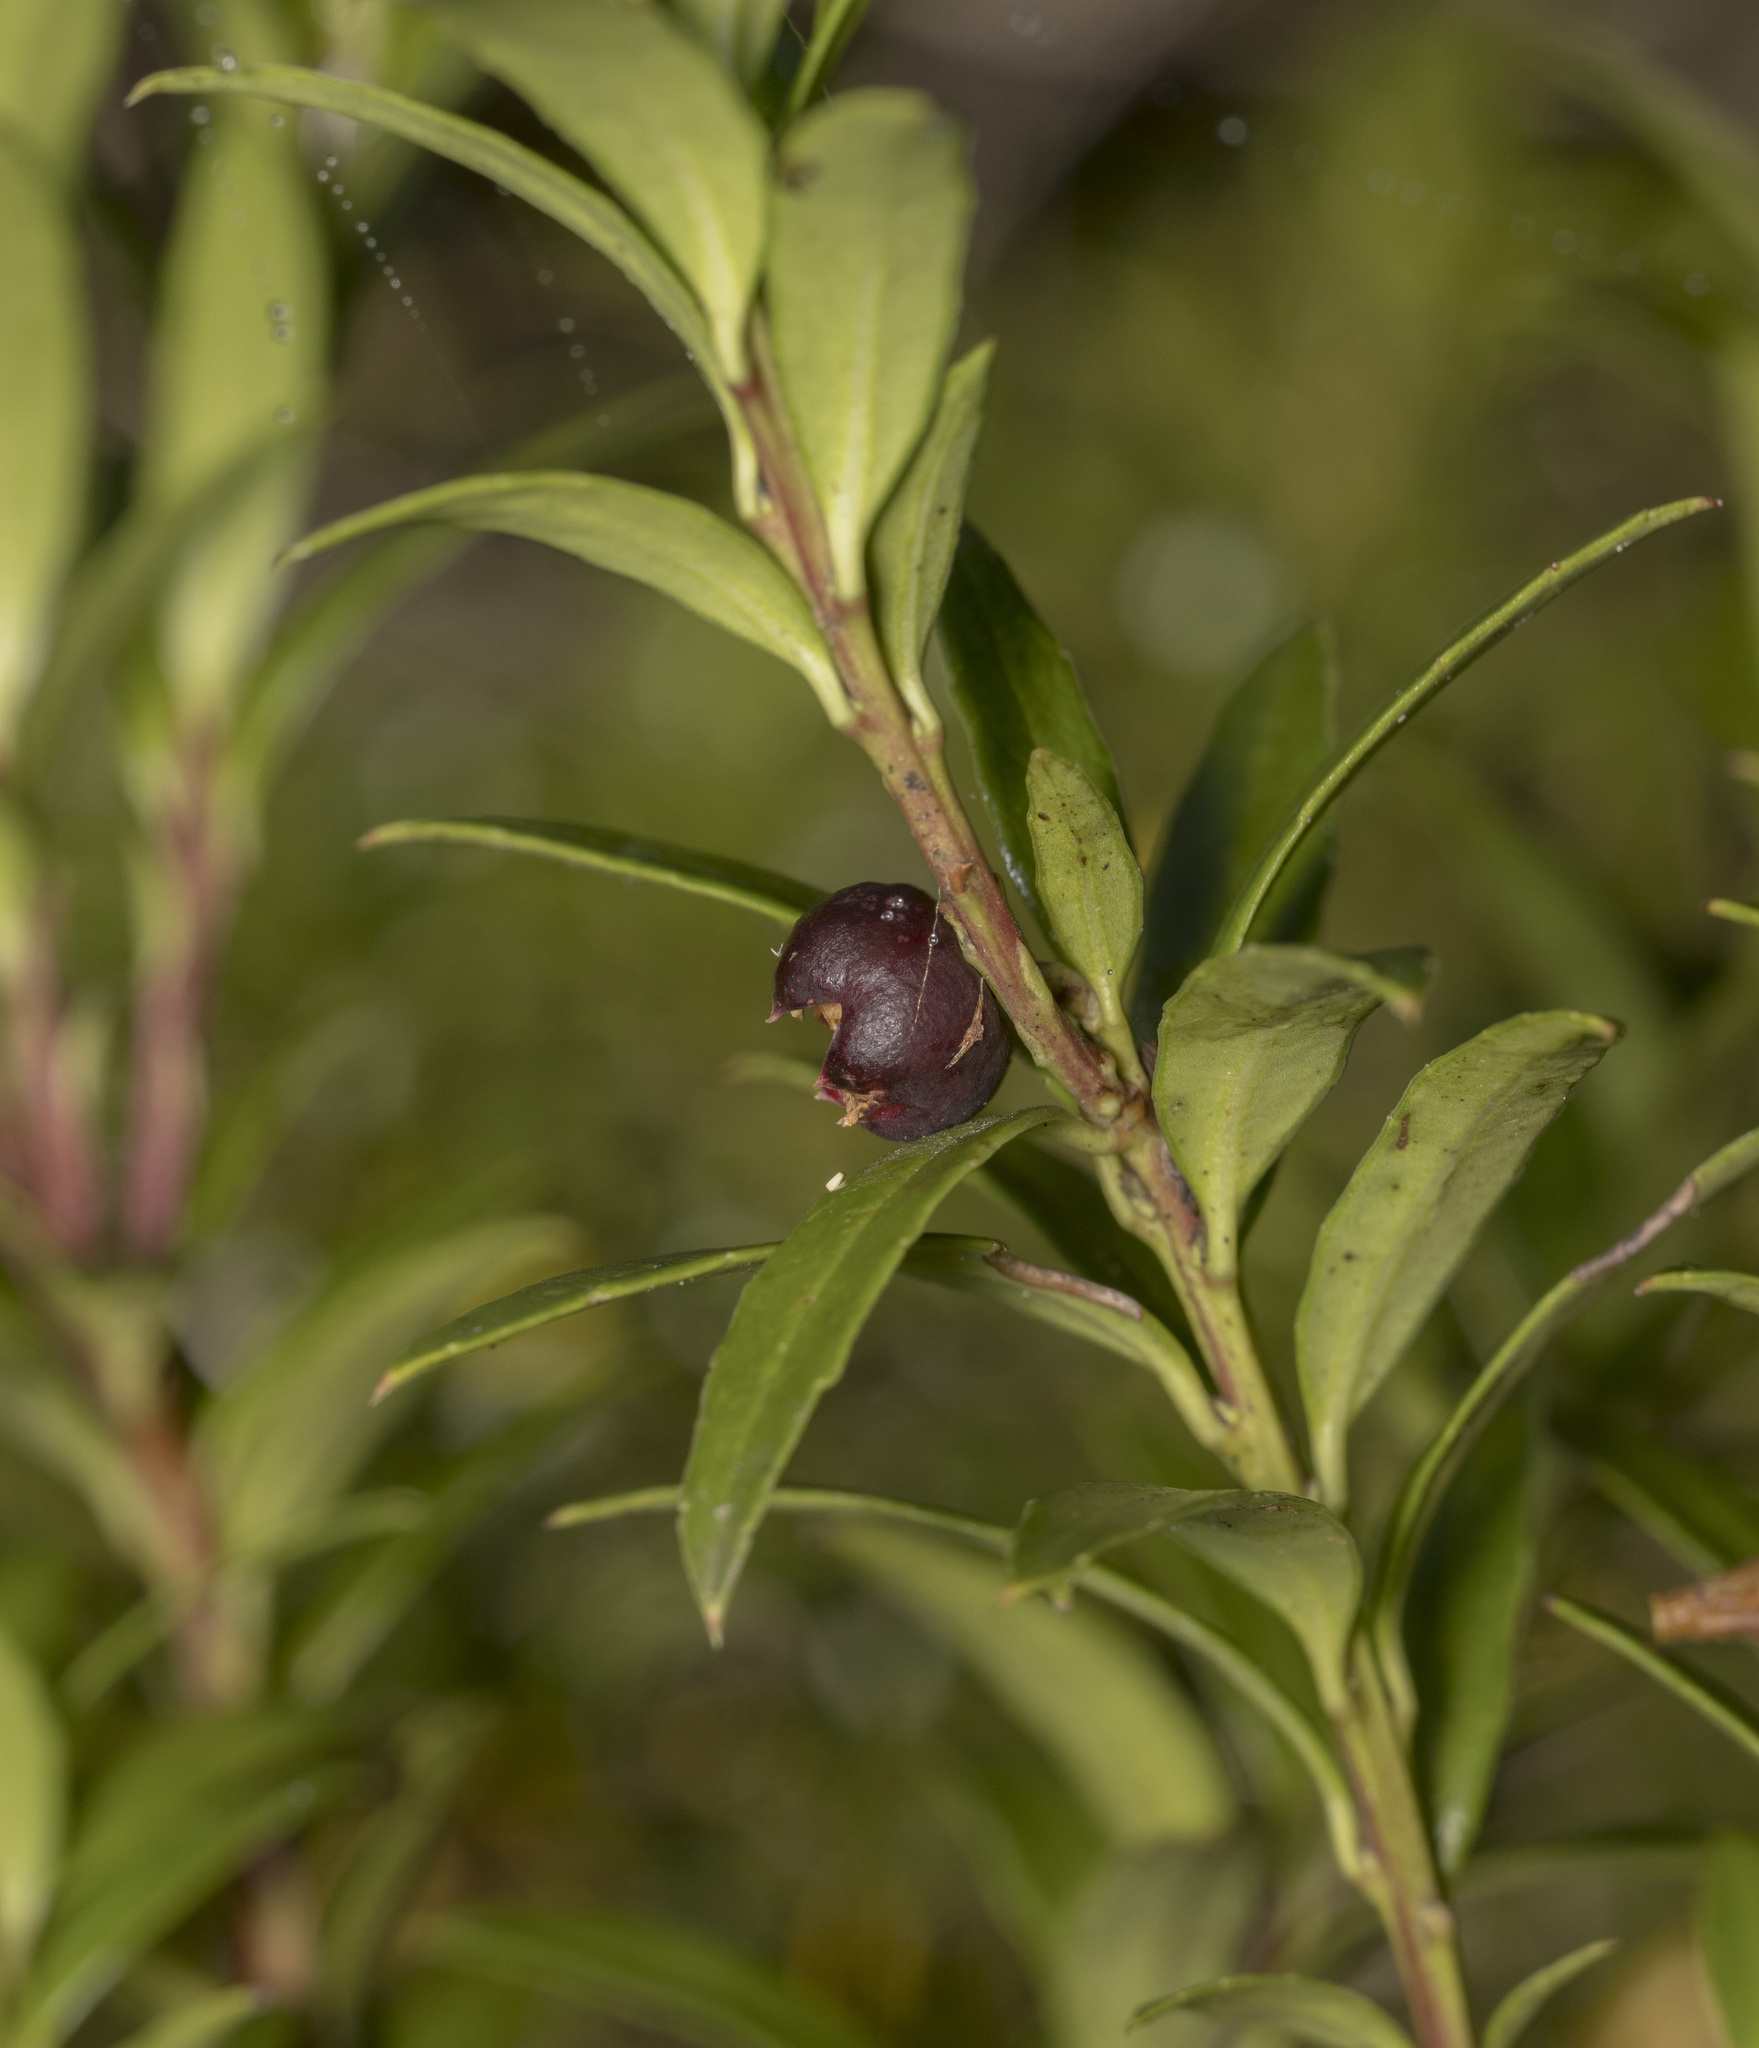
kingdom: Plantae
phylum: Tracheophyta
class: Magnoliopsida
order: Ericales
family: Ericaceae
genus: Gaultheria
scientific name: Gaultheria tenuifolia
